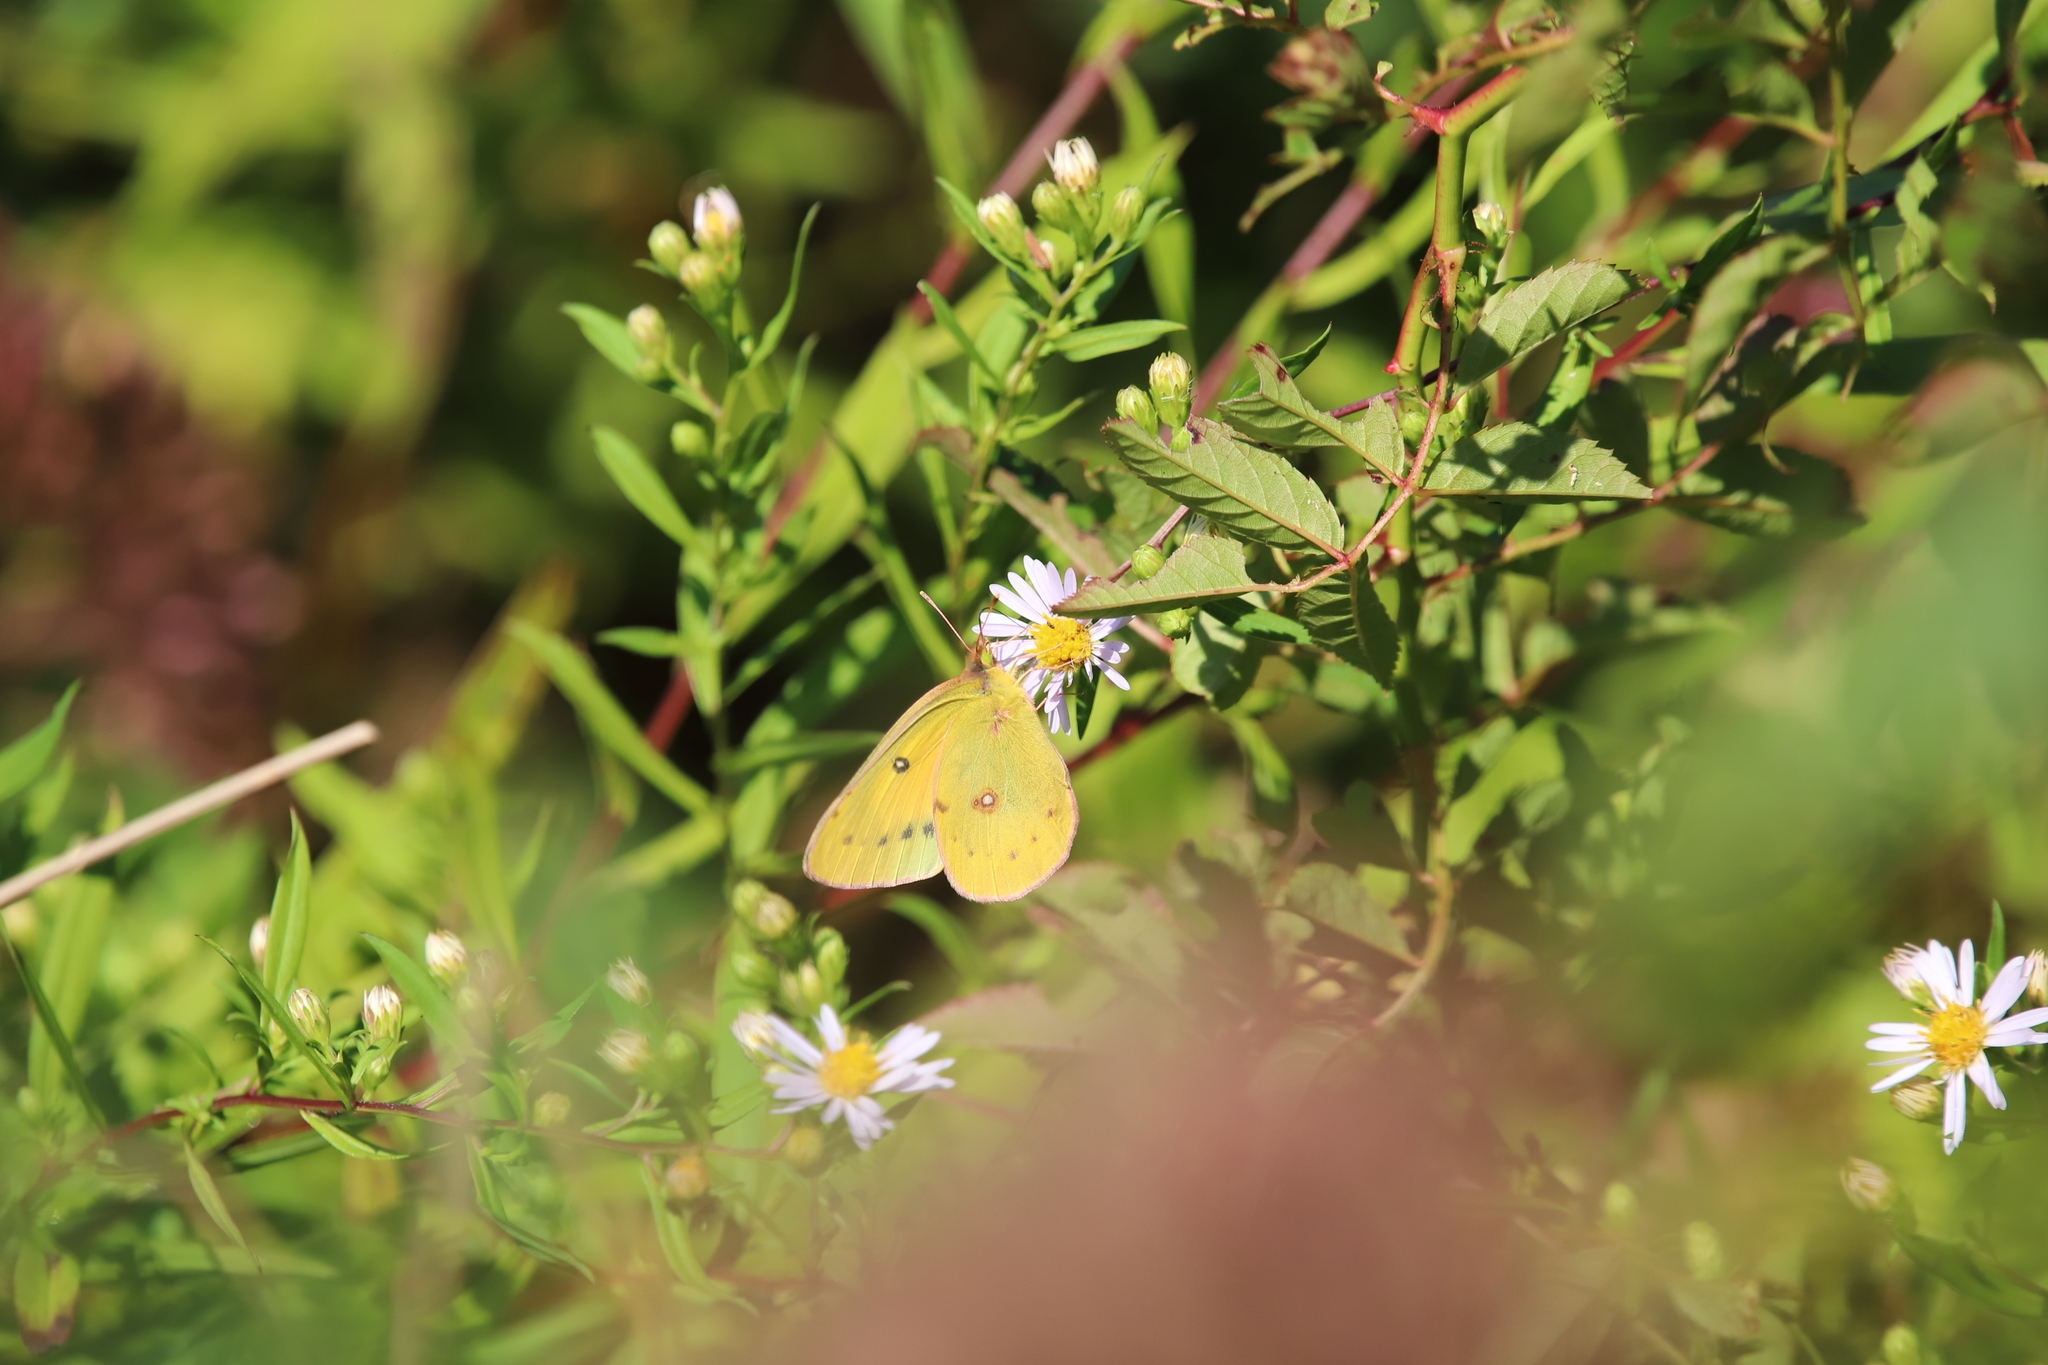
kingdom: Animalia
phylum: Arthropoda
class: Insecta
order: Lepidoptera
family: Pieridae
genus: Colias
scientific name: Colias eurytheme
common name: Alfalfa butterfly
